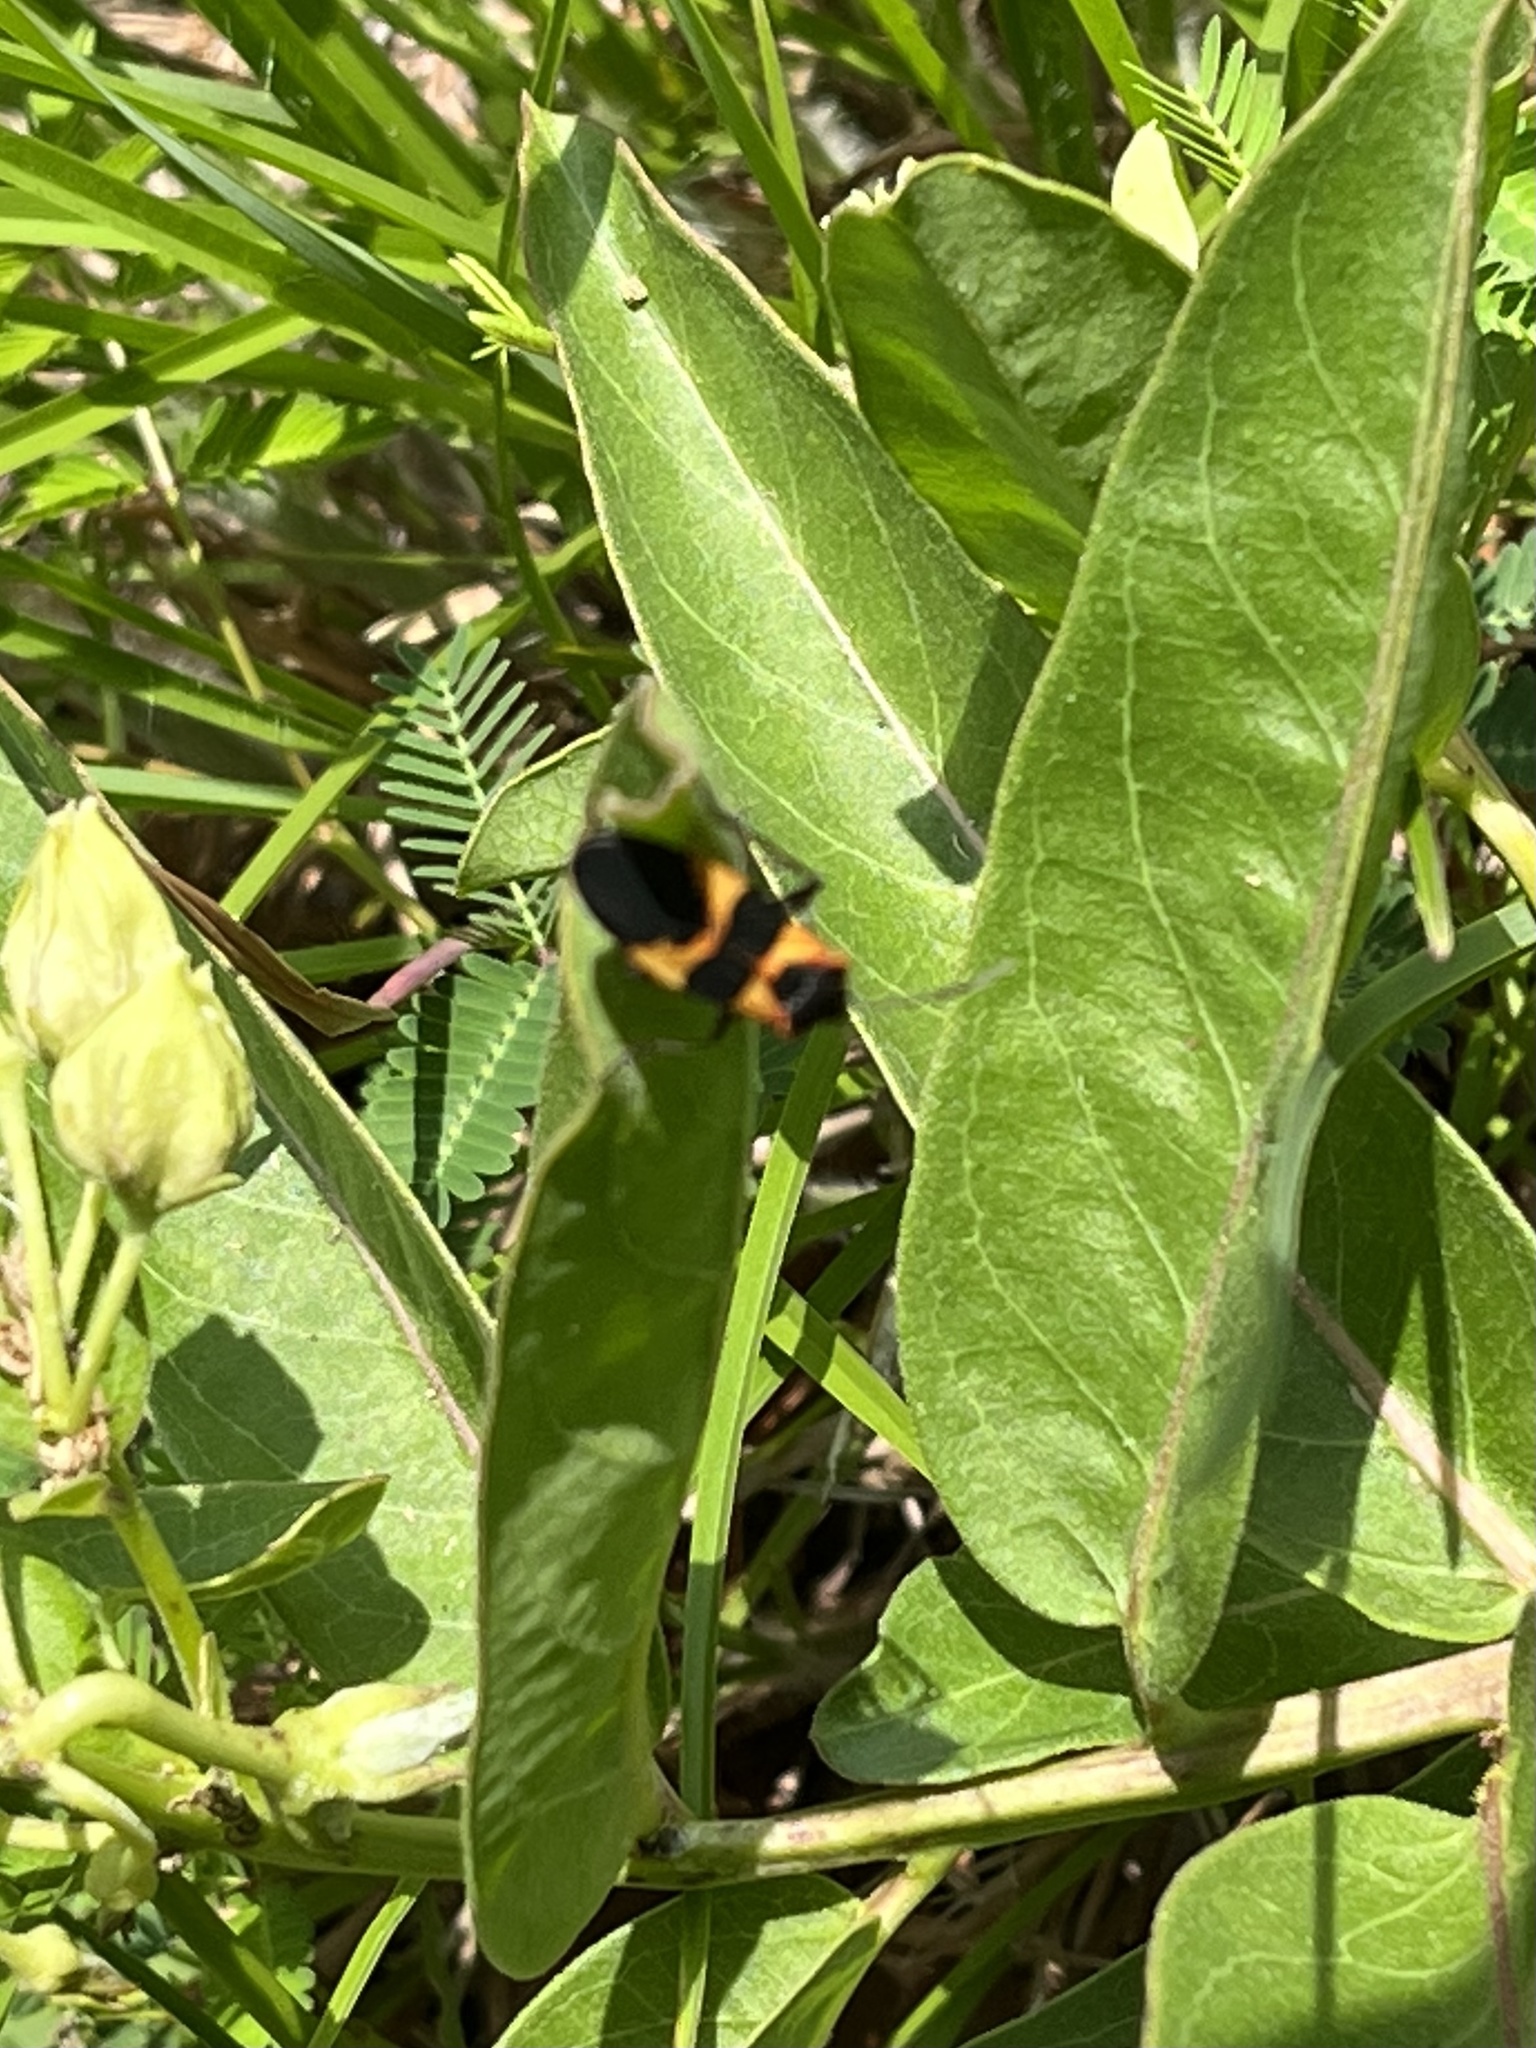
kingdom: Animalia
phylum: Arthropoda
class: Insecta
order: Hemiptera
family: Lygaeidae
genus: Oncopeltus
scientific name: Oncopeltus fasciatus
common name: Large milkweed bug
